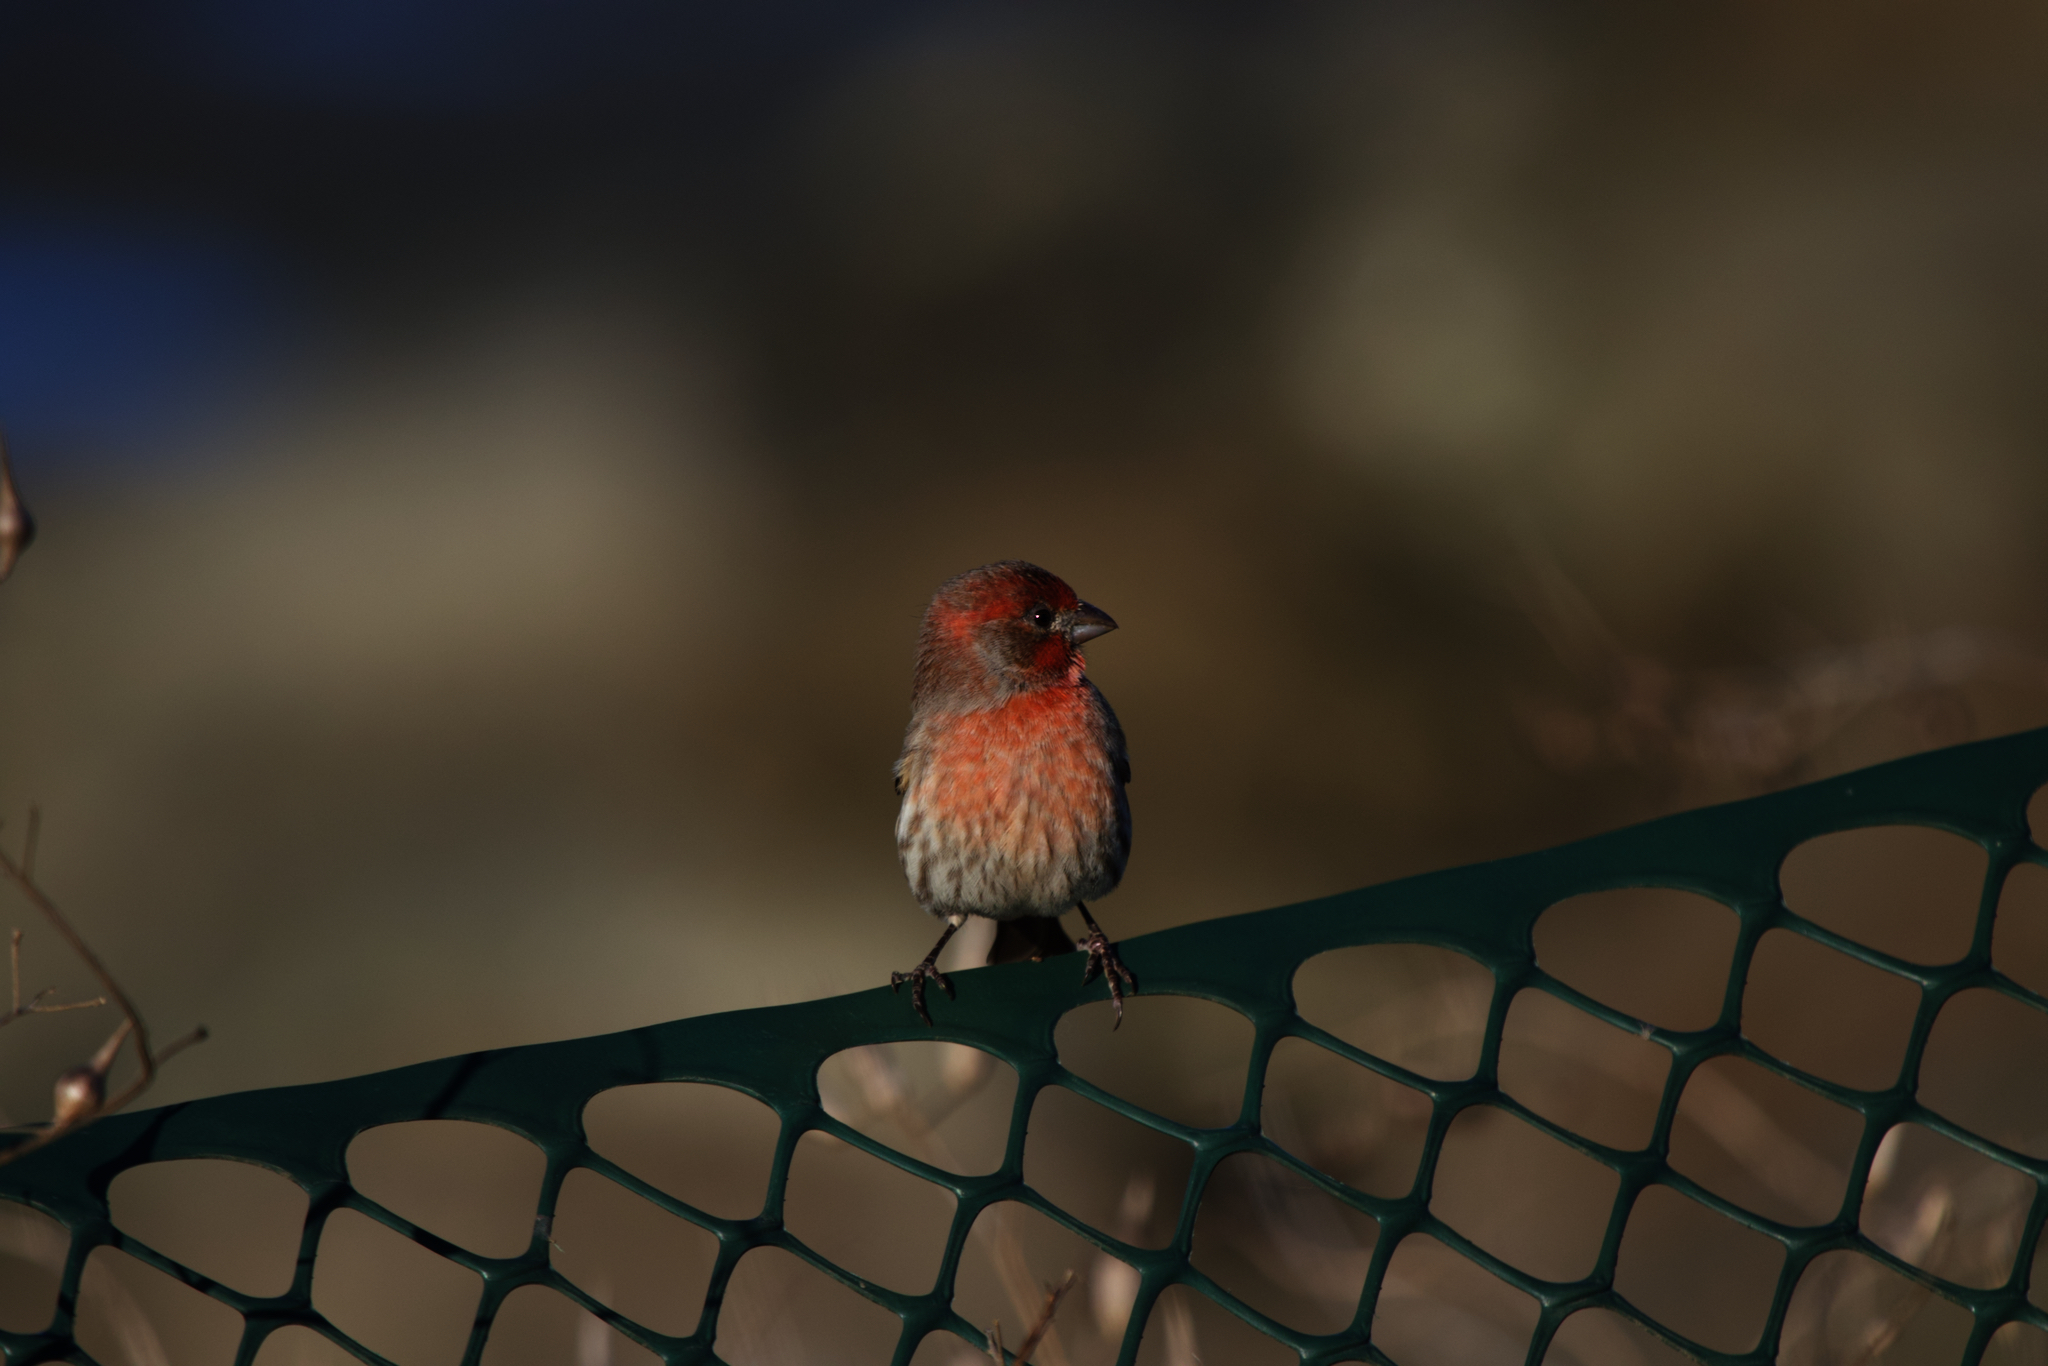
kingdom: Animalia
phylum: Chordata
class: Aves
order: Passeriformes
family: Fringillidae
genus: Haemorhous
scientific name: Haemorhous mexicanus
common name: House finch
